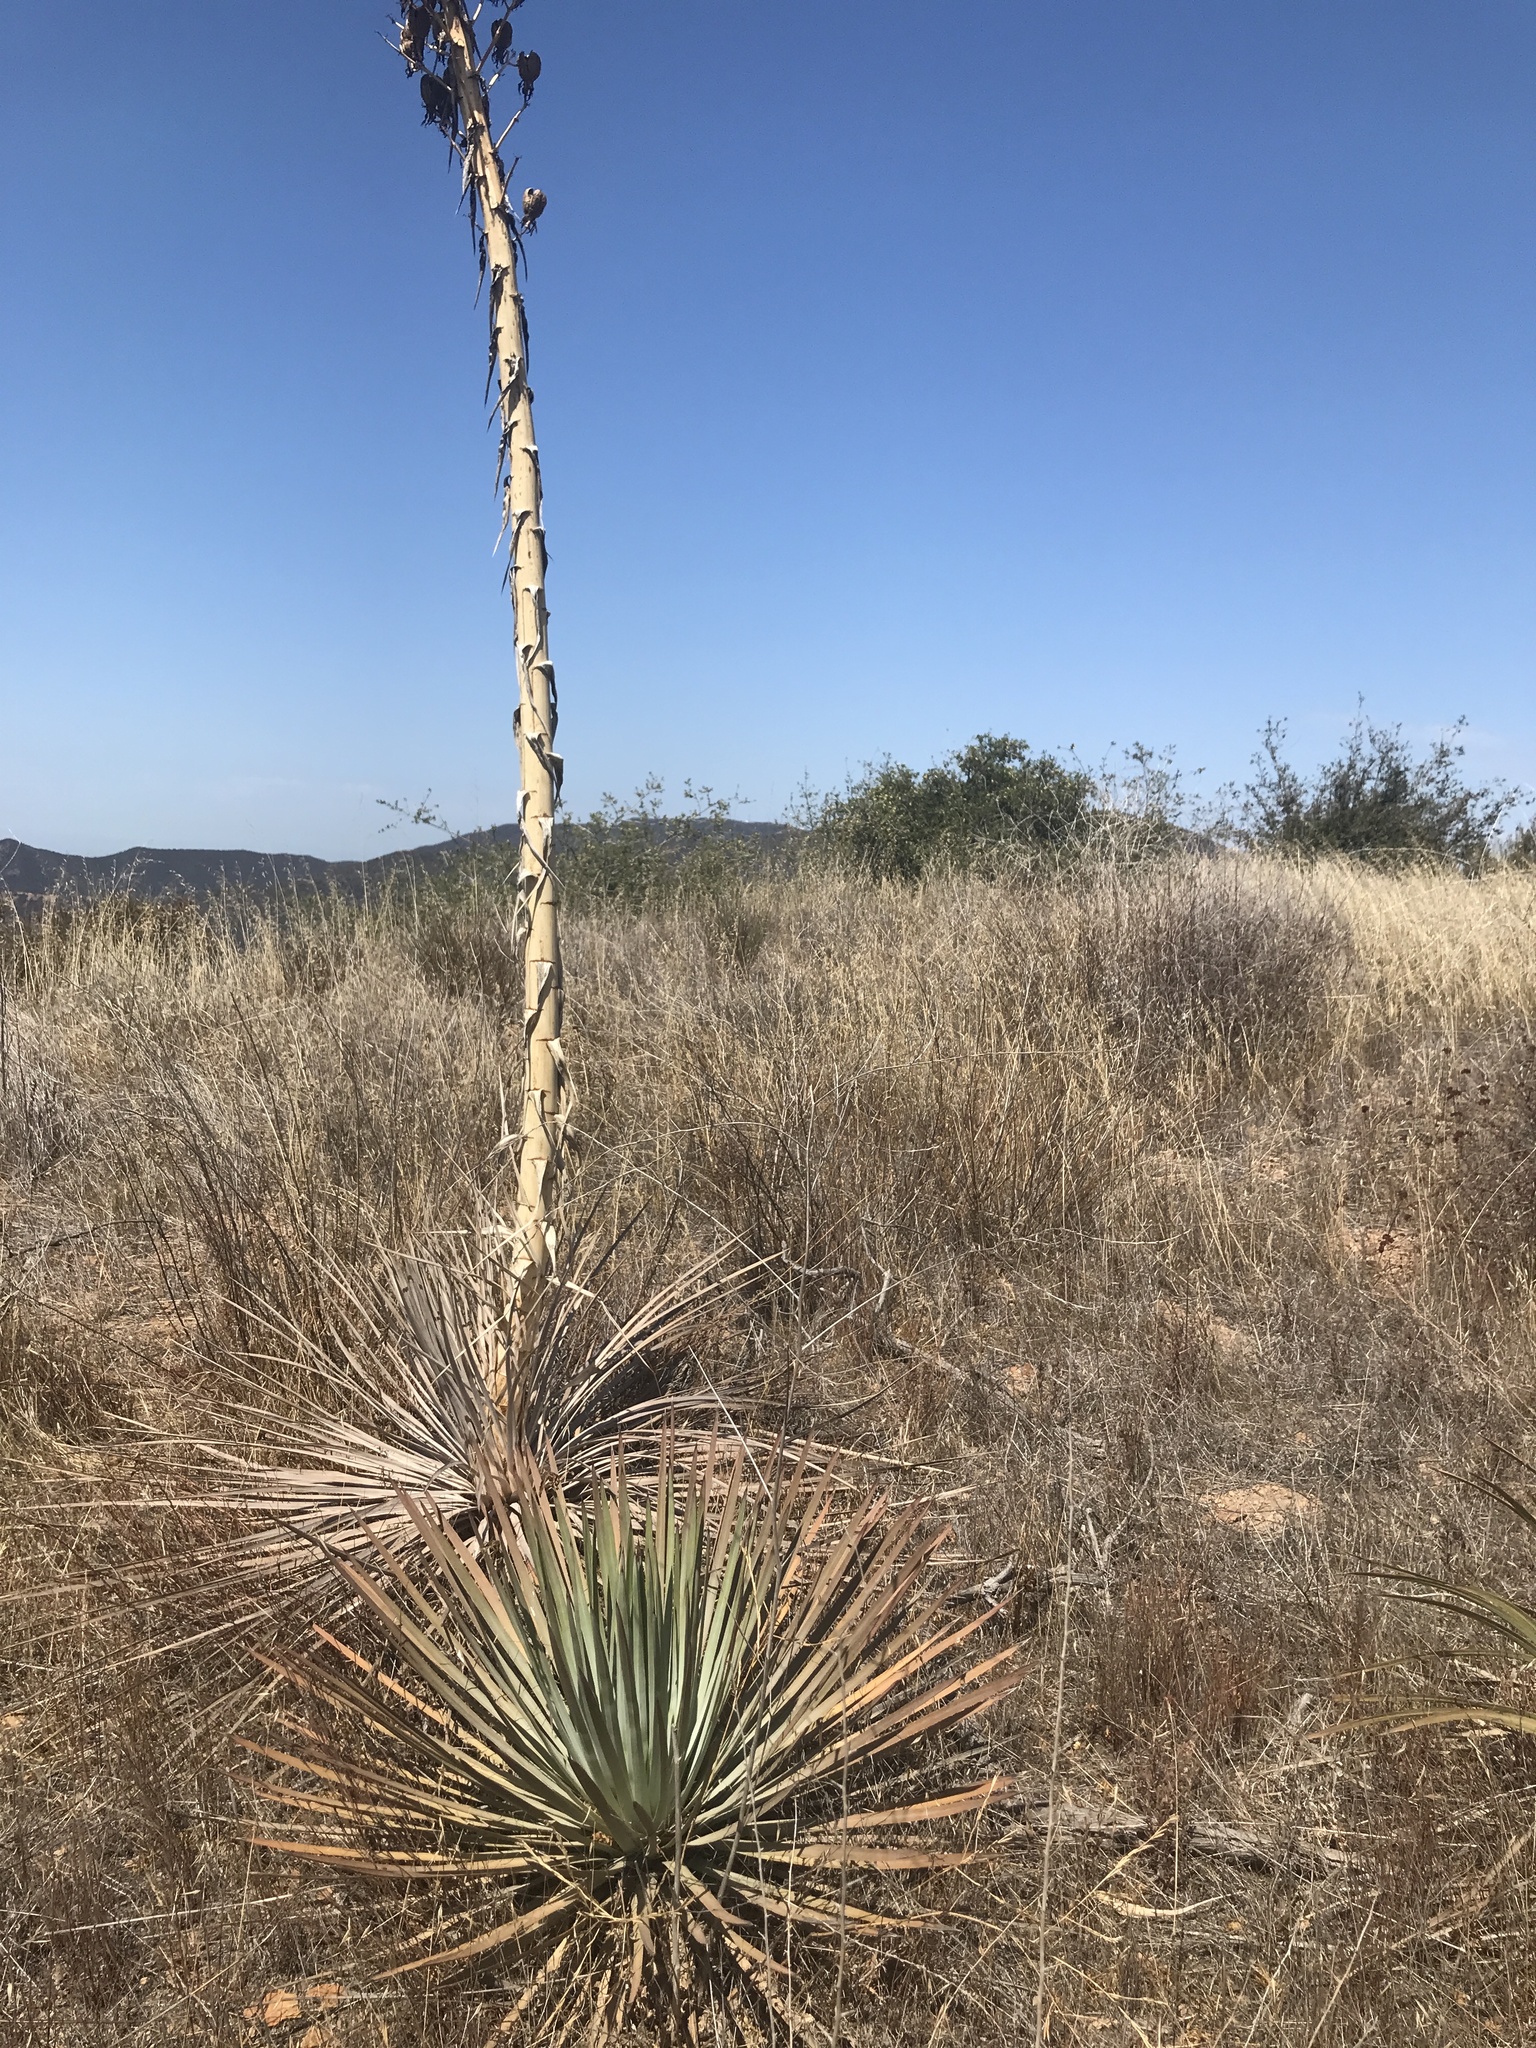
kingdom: Plantae
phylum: Tracheophyta
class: Liliopsida
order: Asparagales
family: Asparagaceae
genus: Hesperoyucca
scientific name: Hesperoyucca whipplei
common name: Our lord's-candle
